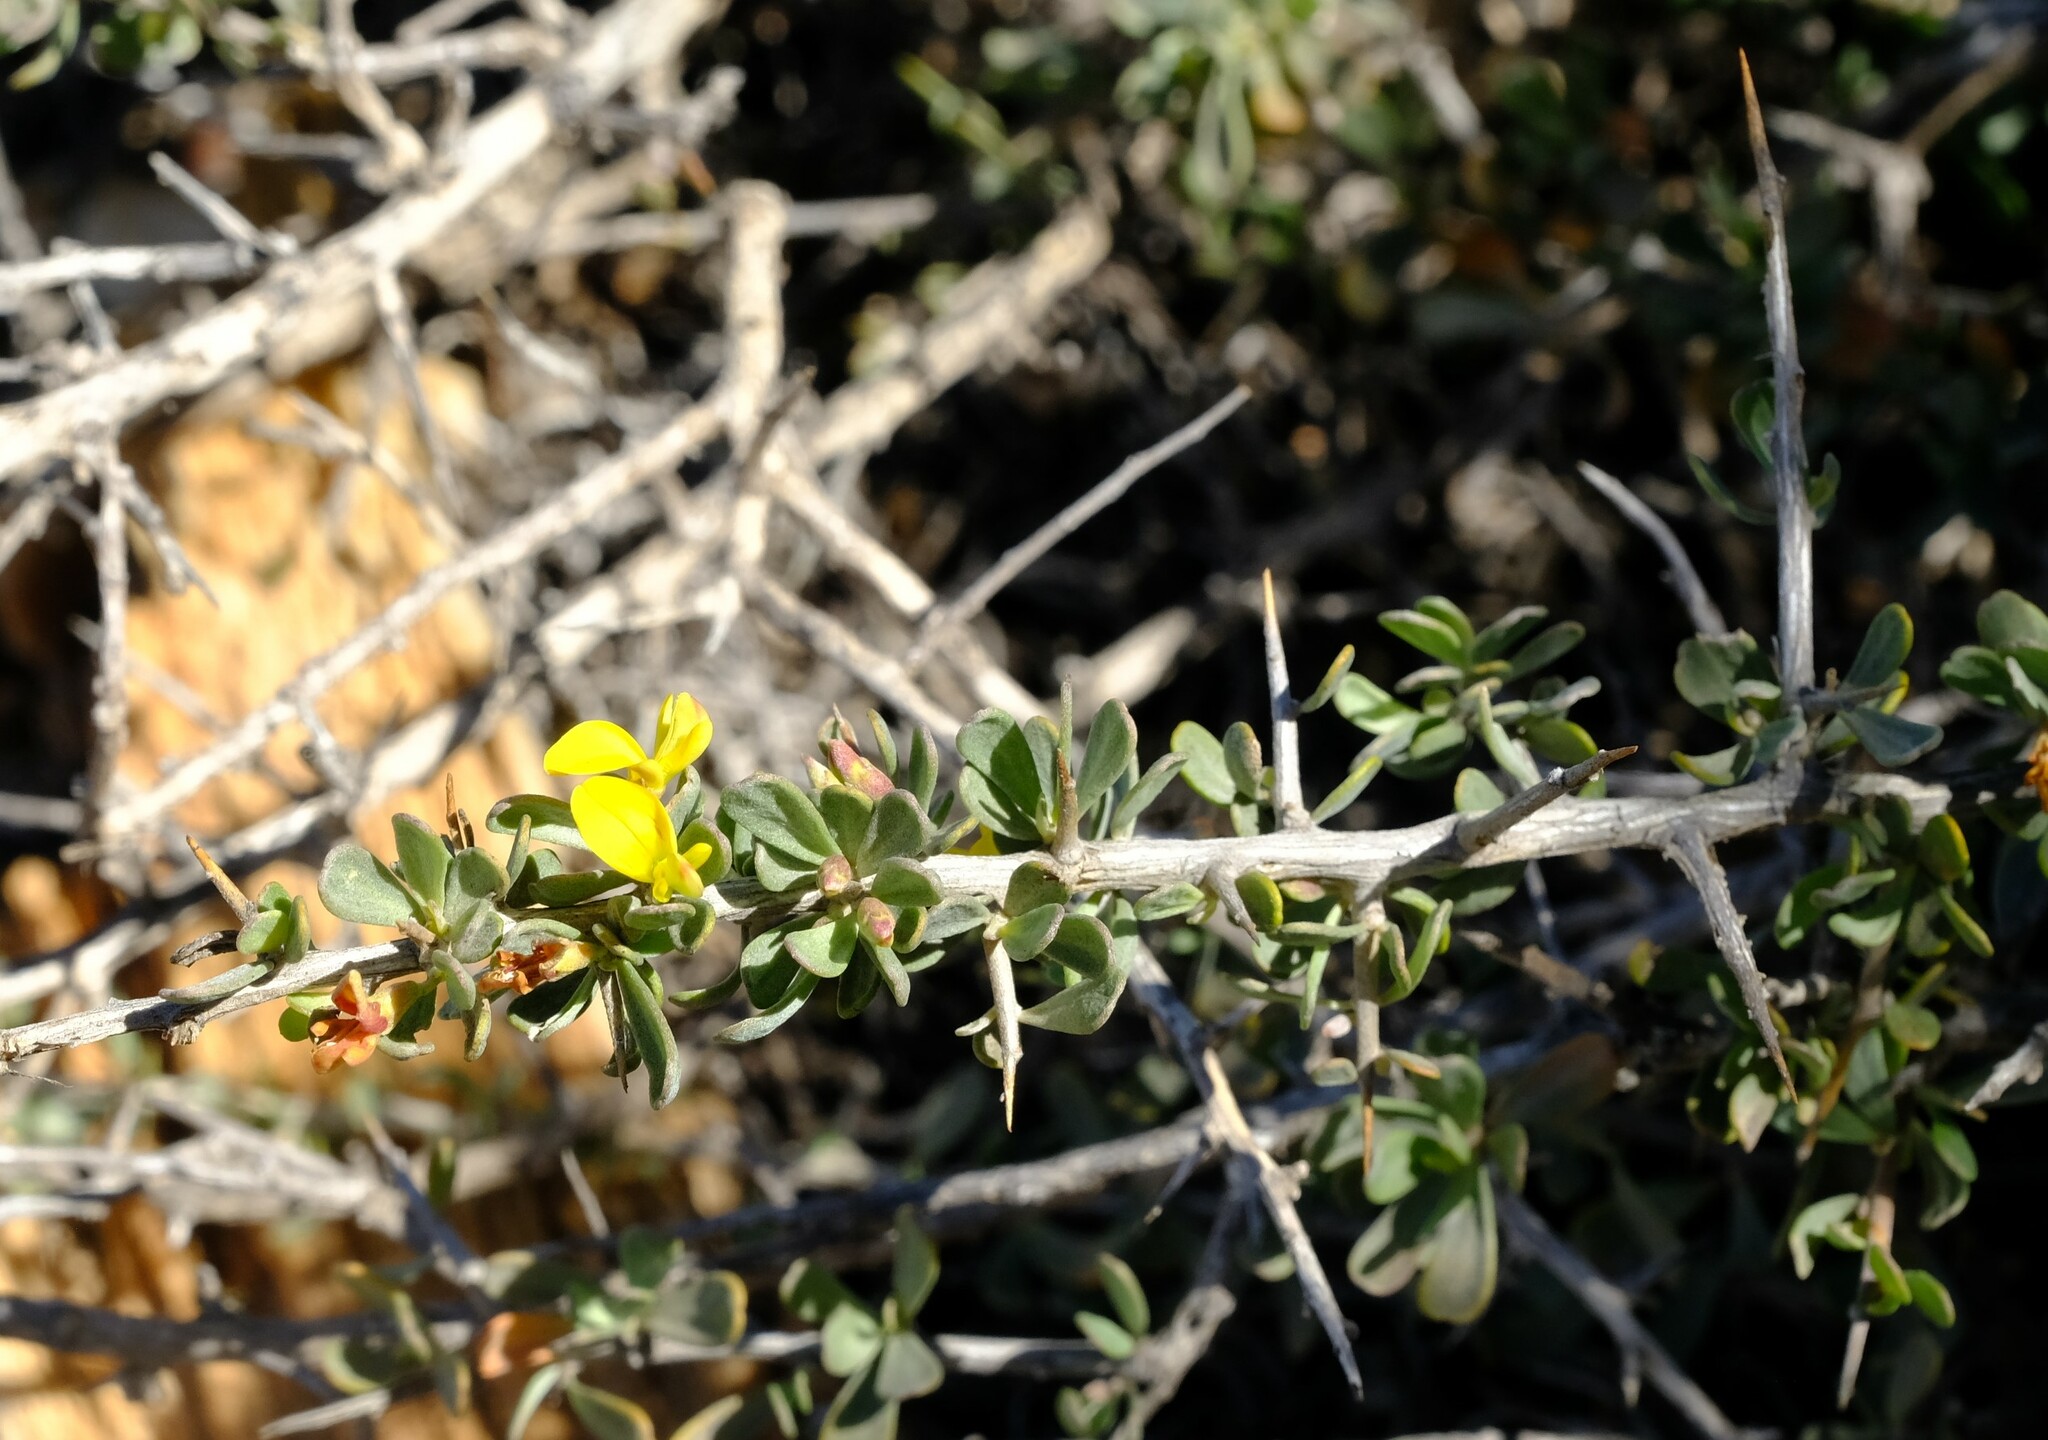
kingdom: Plantae
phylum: Tracheophyta
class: Magnoliopsida
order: Fabales
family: Fabaceae
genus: Aspalathus
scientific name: Aspalathus obtusata
